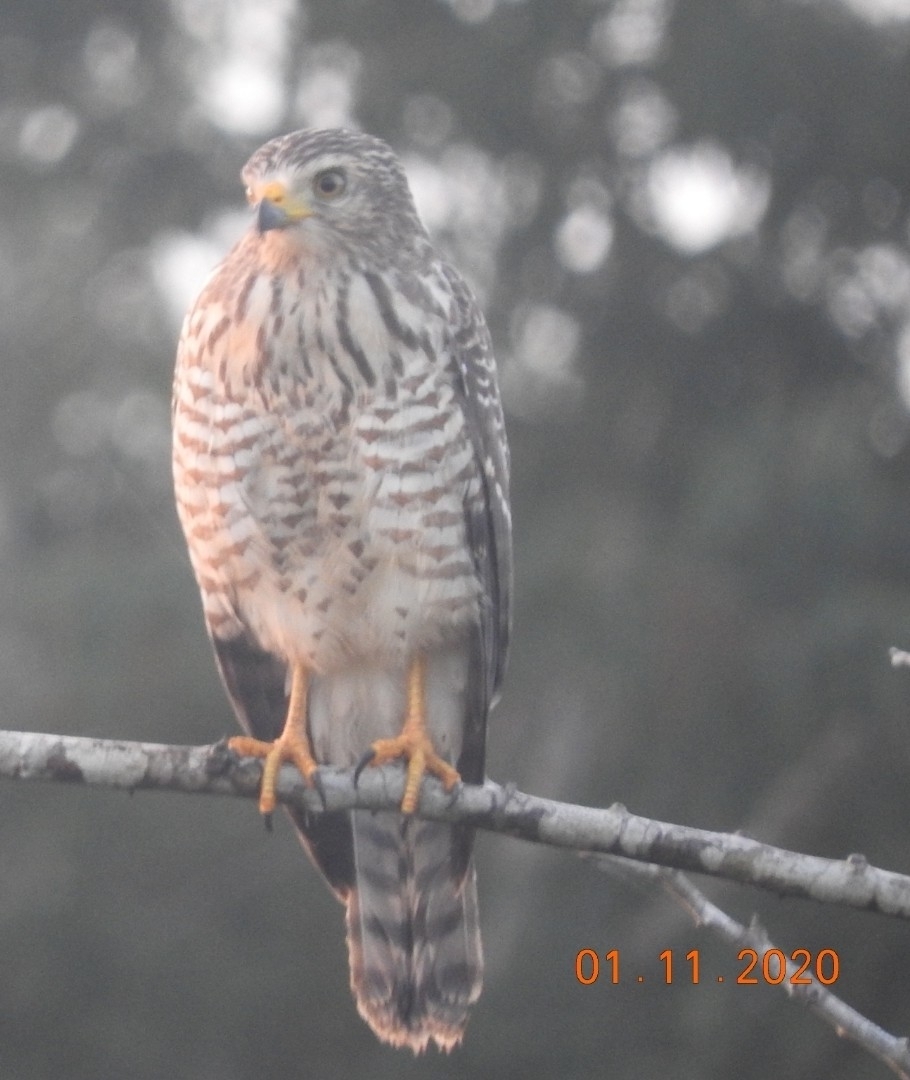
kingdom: Animalia
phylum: Chordata
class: Aves
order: Accipitriformes
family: Accipitridae
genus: Rupornis
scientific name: Rupornis magnirostris
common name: Roadside hawk
